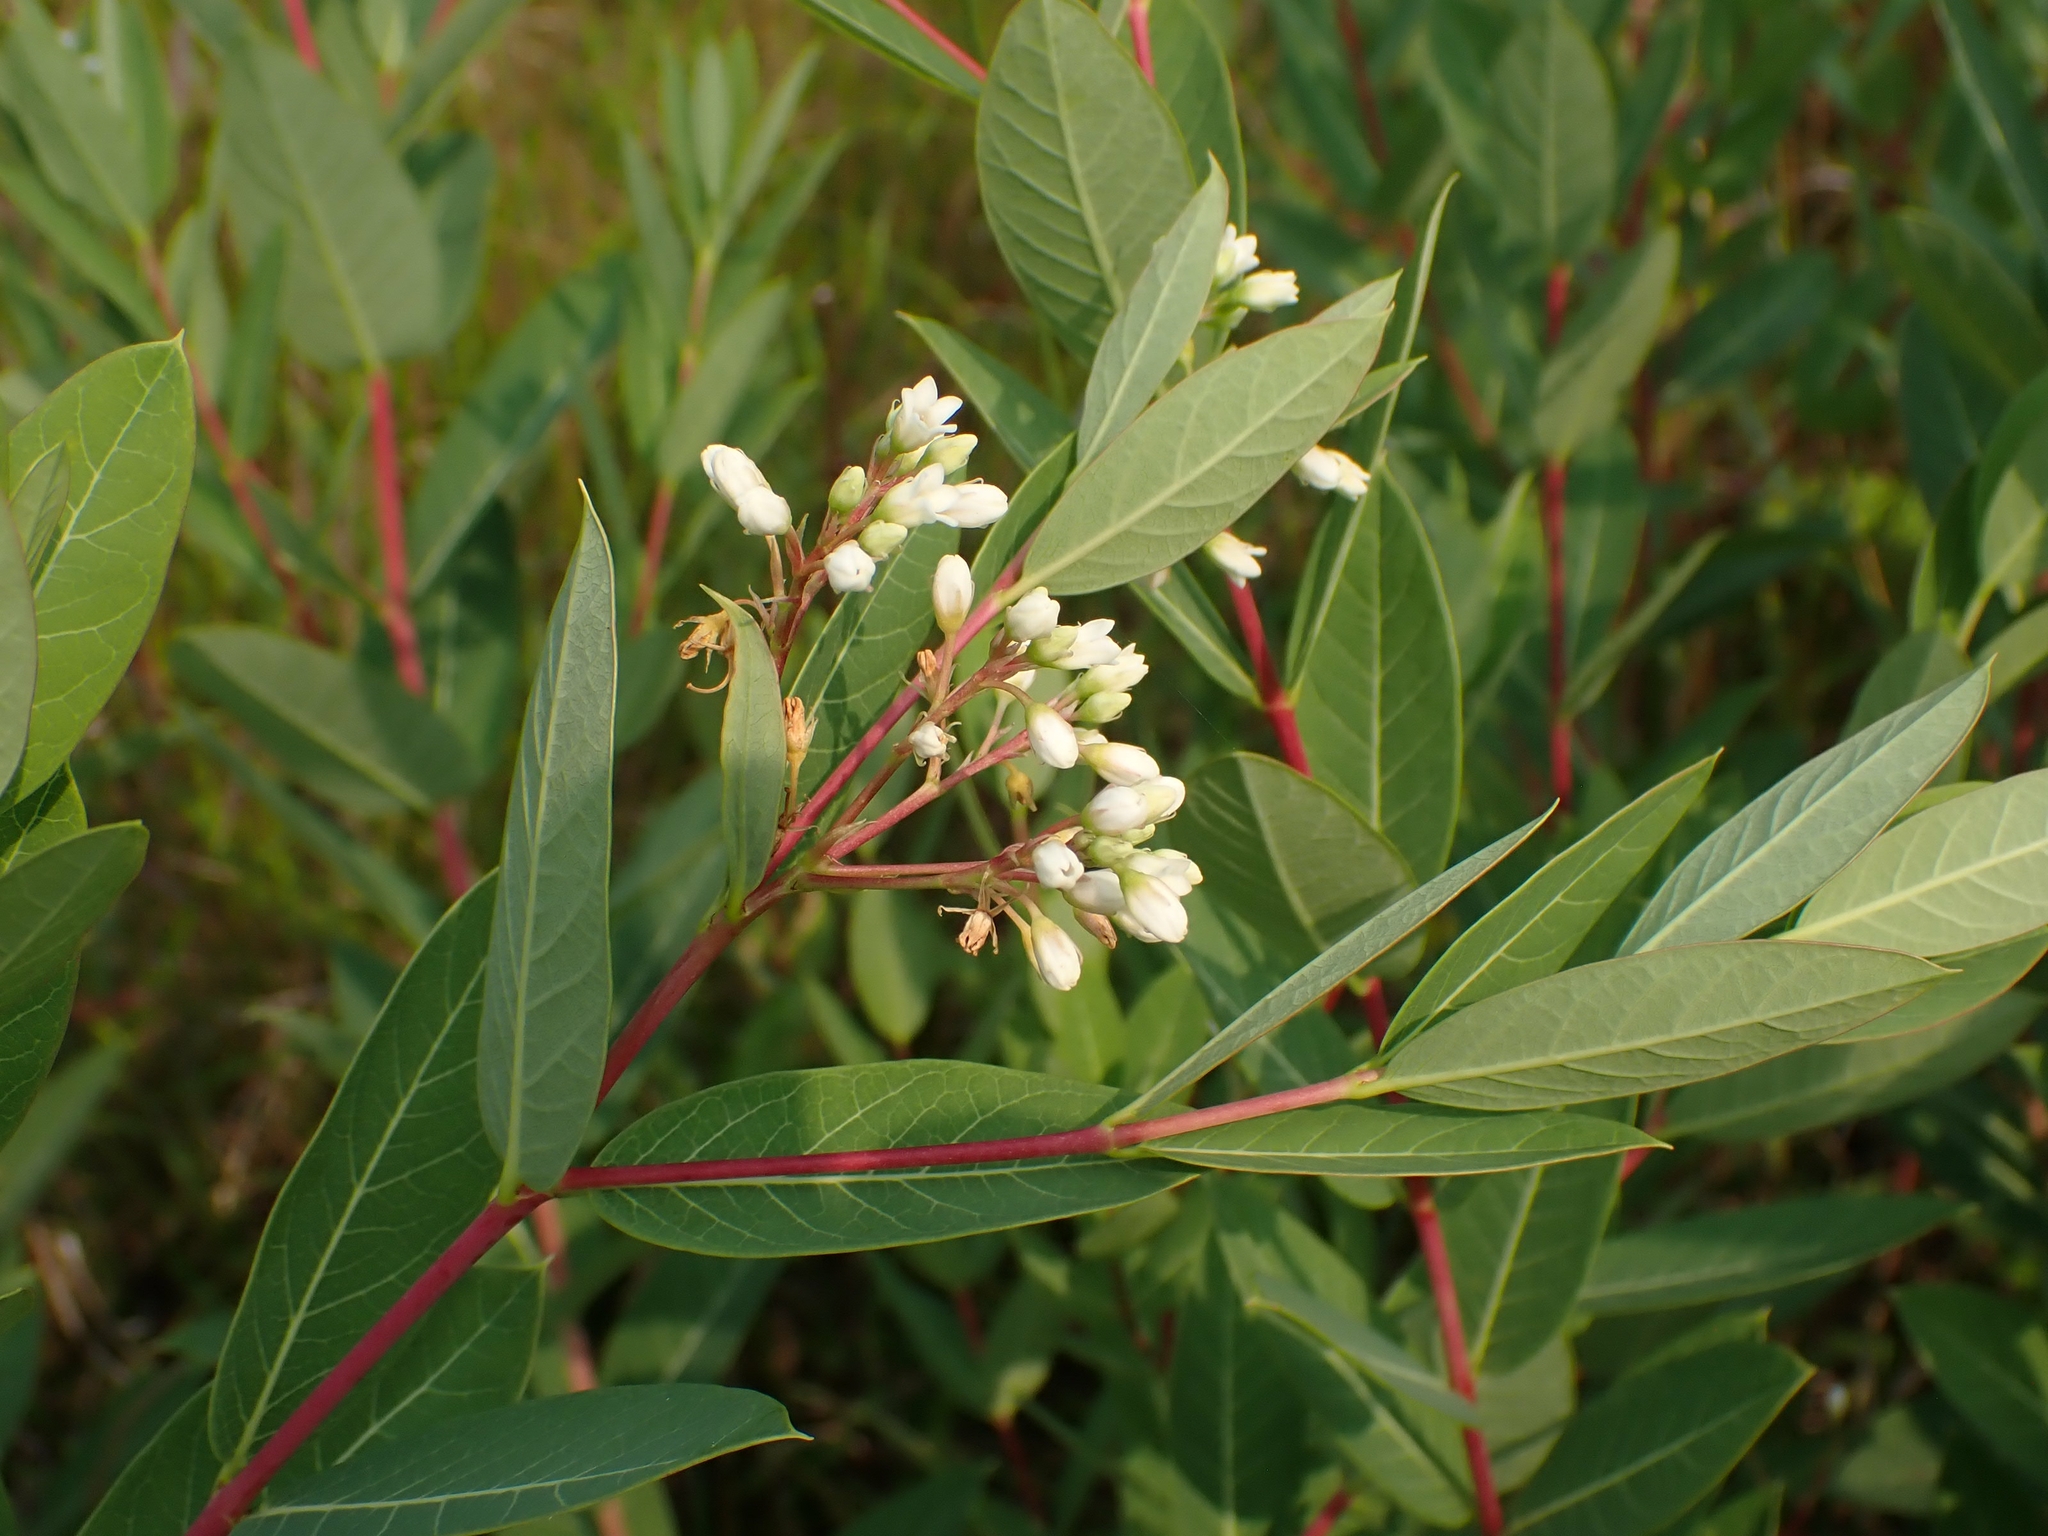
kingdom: Plantae
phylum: Tracheophyta
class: Magnoliopsida
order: Gentianales
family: Apocynaceae
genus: Apocynum
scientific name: Apocynum cannabinum
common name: Hemp dogbane
